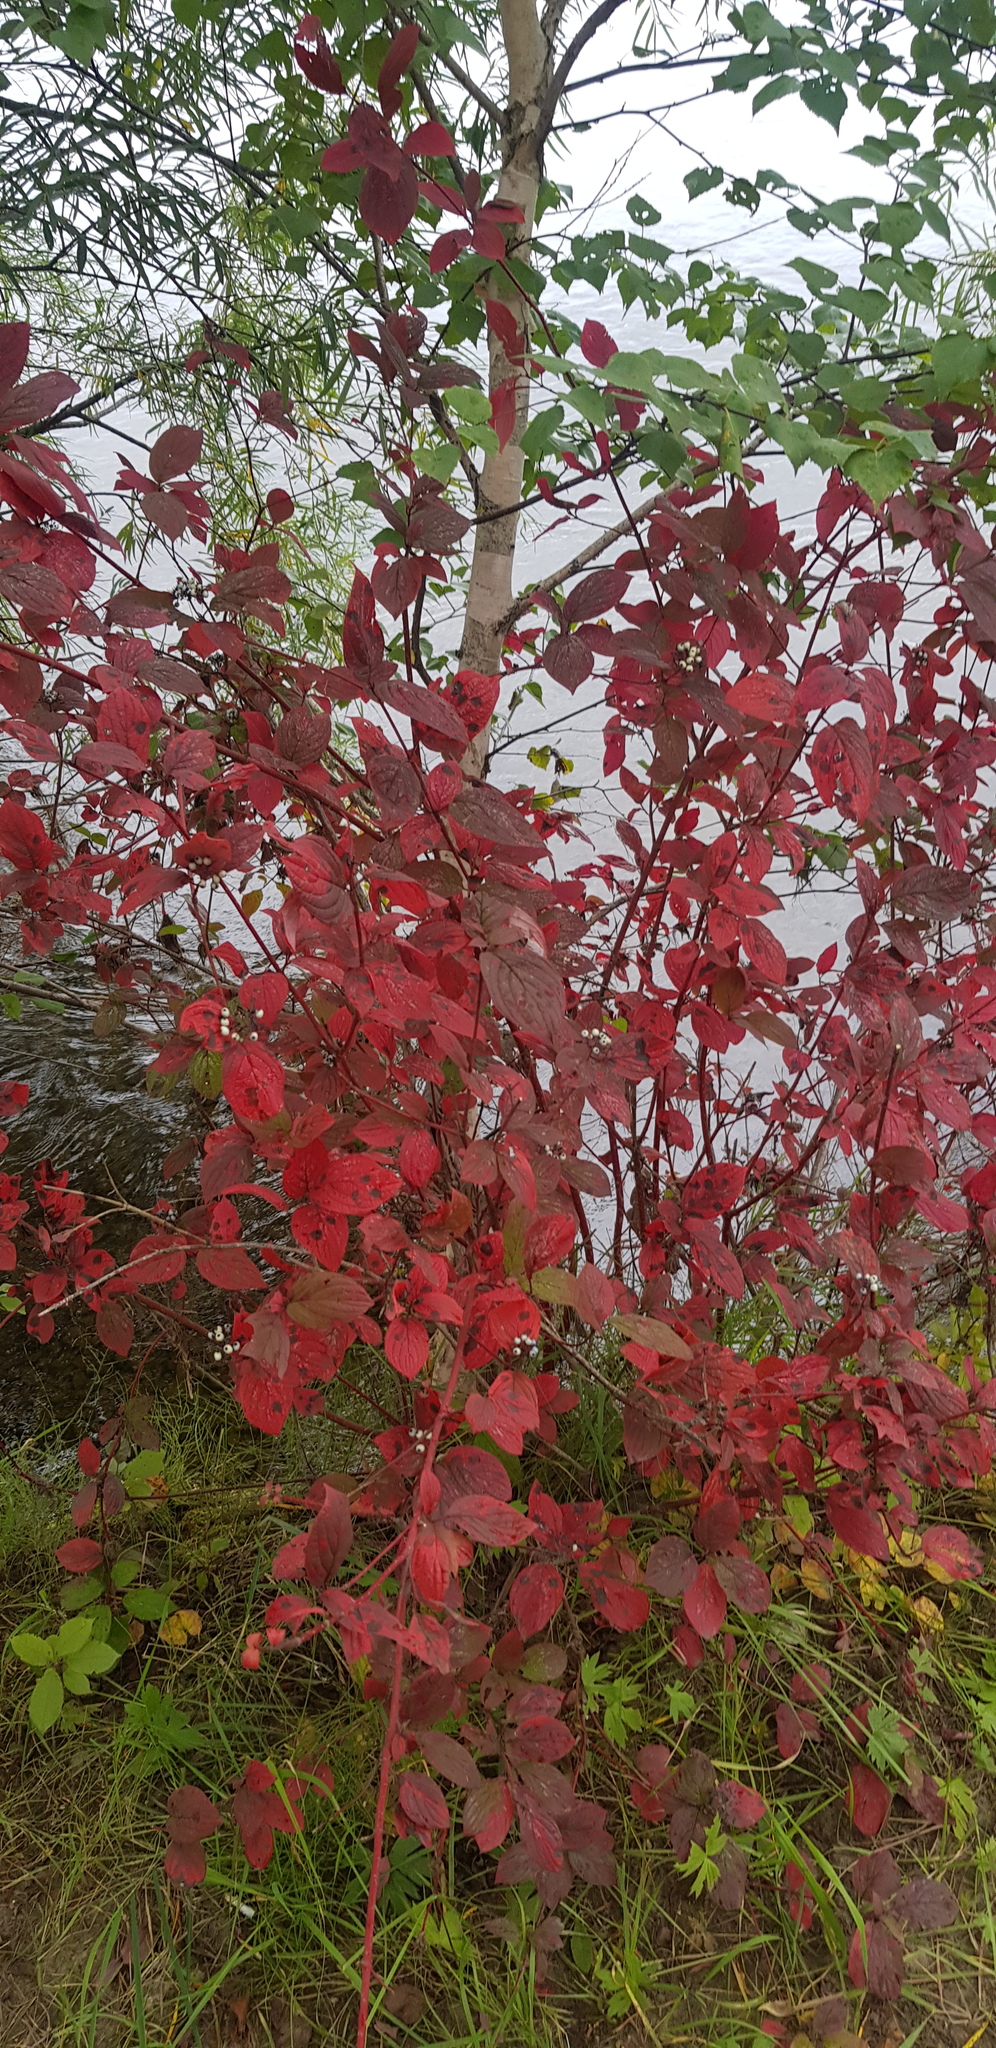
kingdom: Plantae
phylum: Tracheophyta
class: Magnoliopsida
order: Cornales
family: Cornaceae
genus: Cornus
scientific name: Cornus alba
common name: White dogwood
